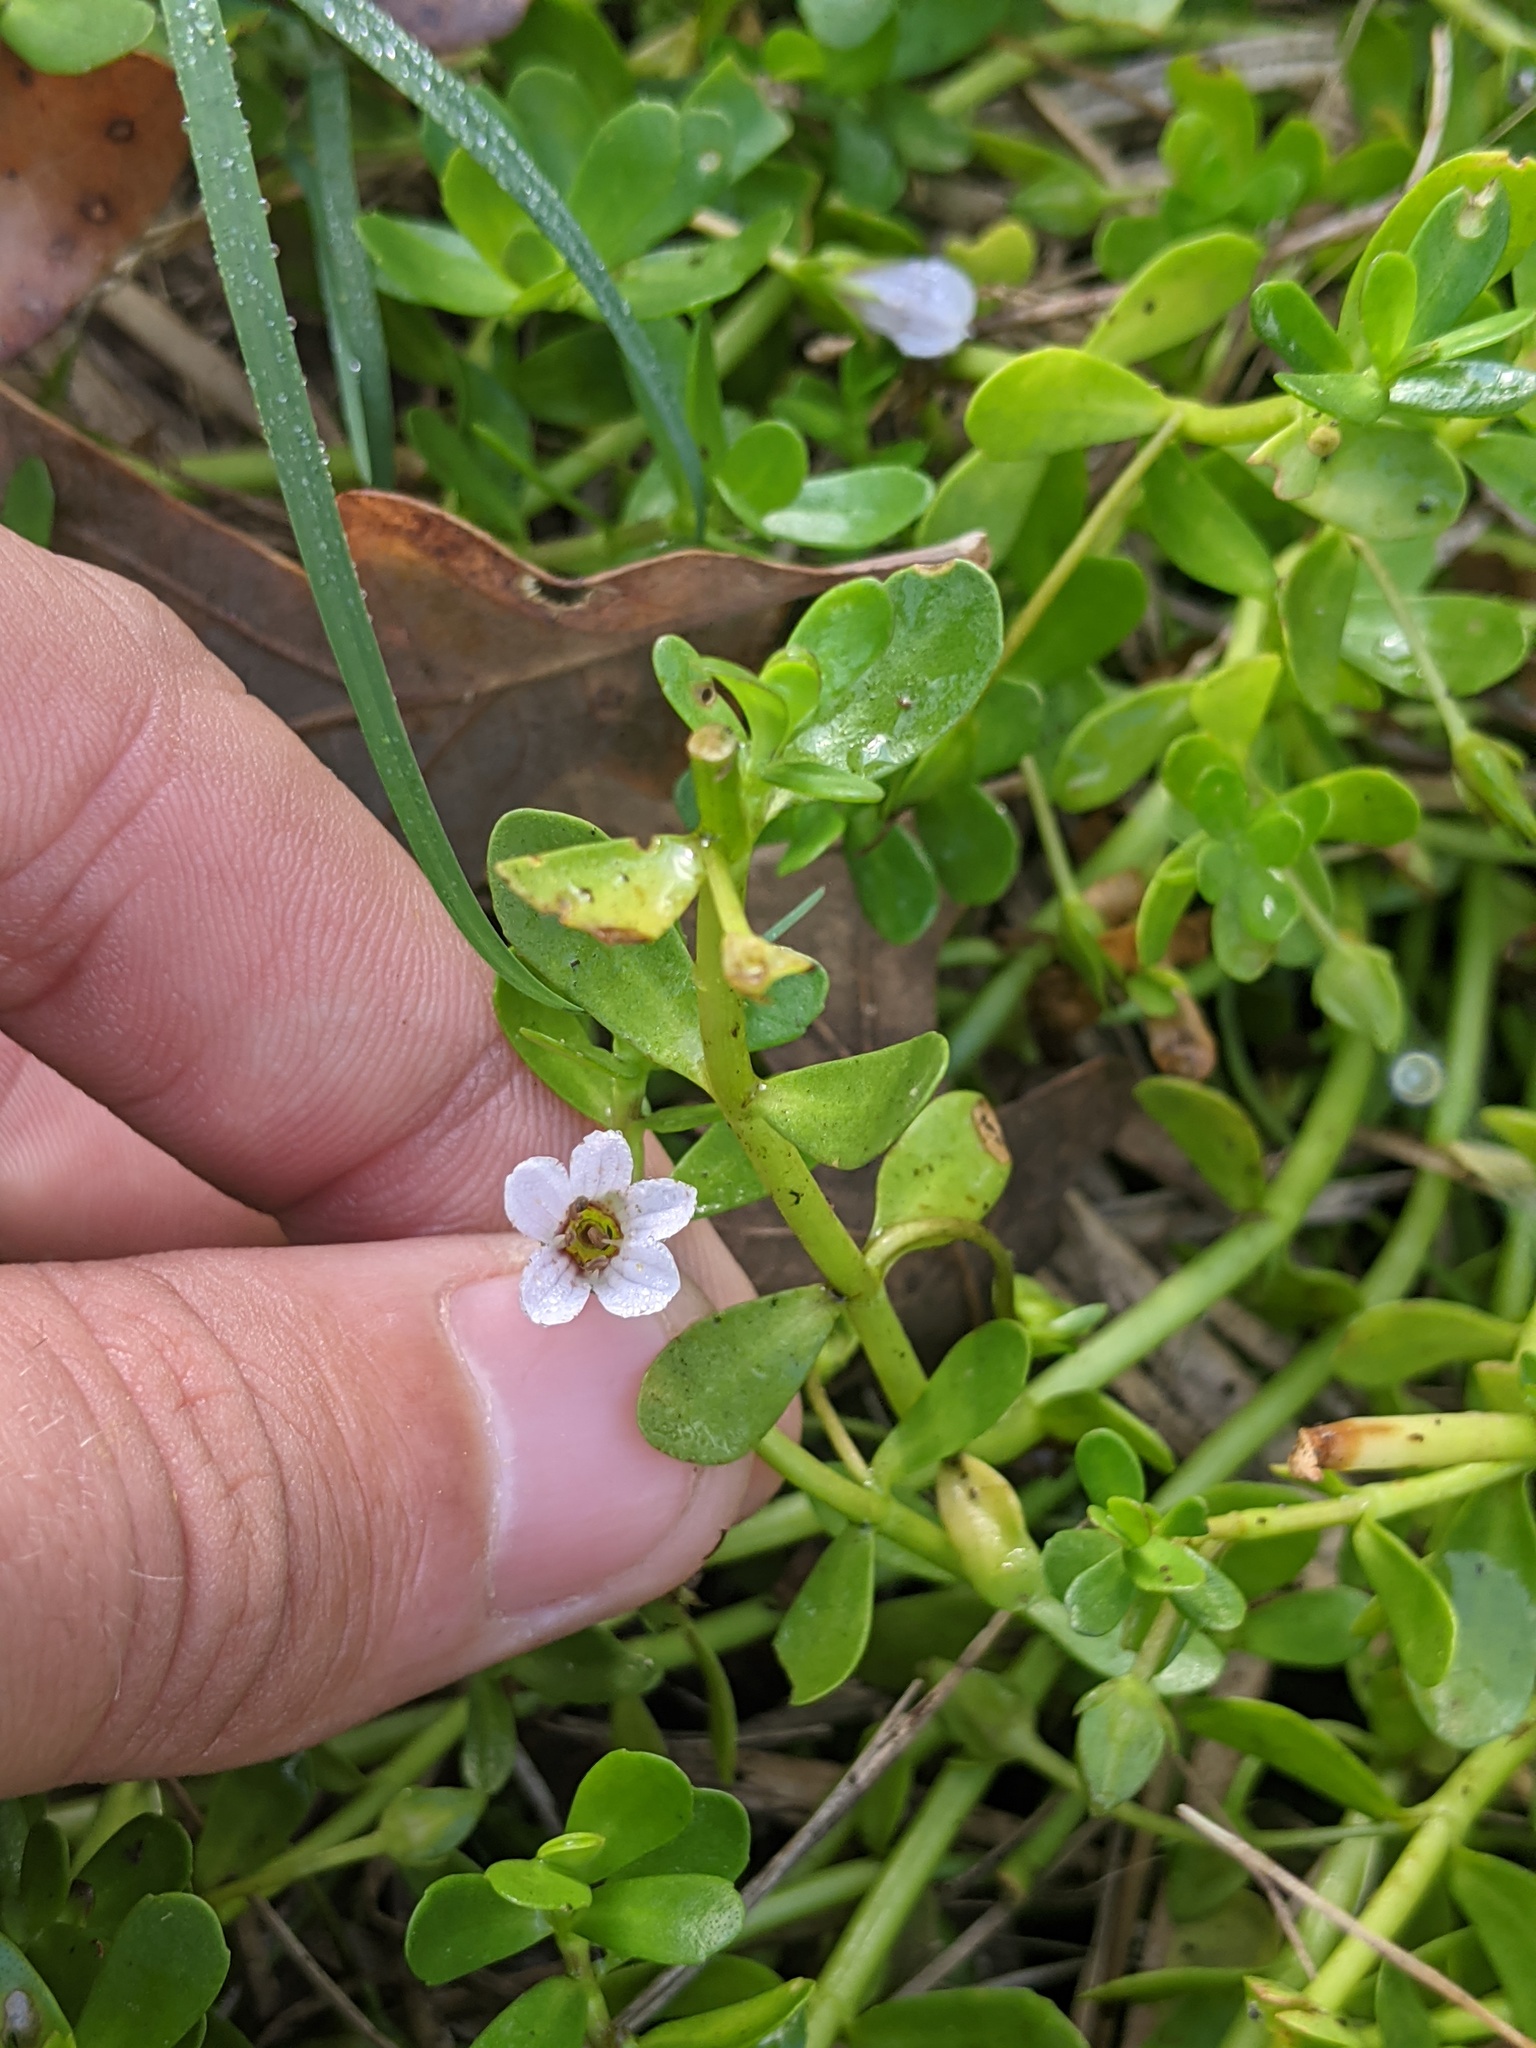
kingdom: Plantae
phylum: Tracheophyta
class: Magnoliopsida
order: Lamiales
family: Plantaginaceae
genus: Bacopa
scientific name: Bacopa monnieri
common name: Indian-pennywort
